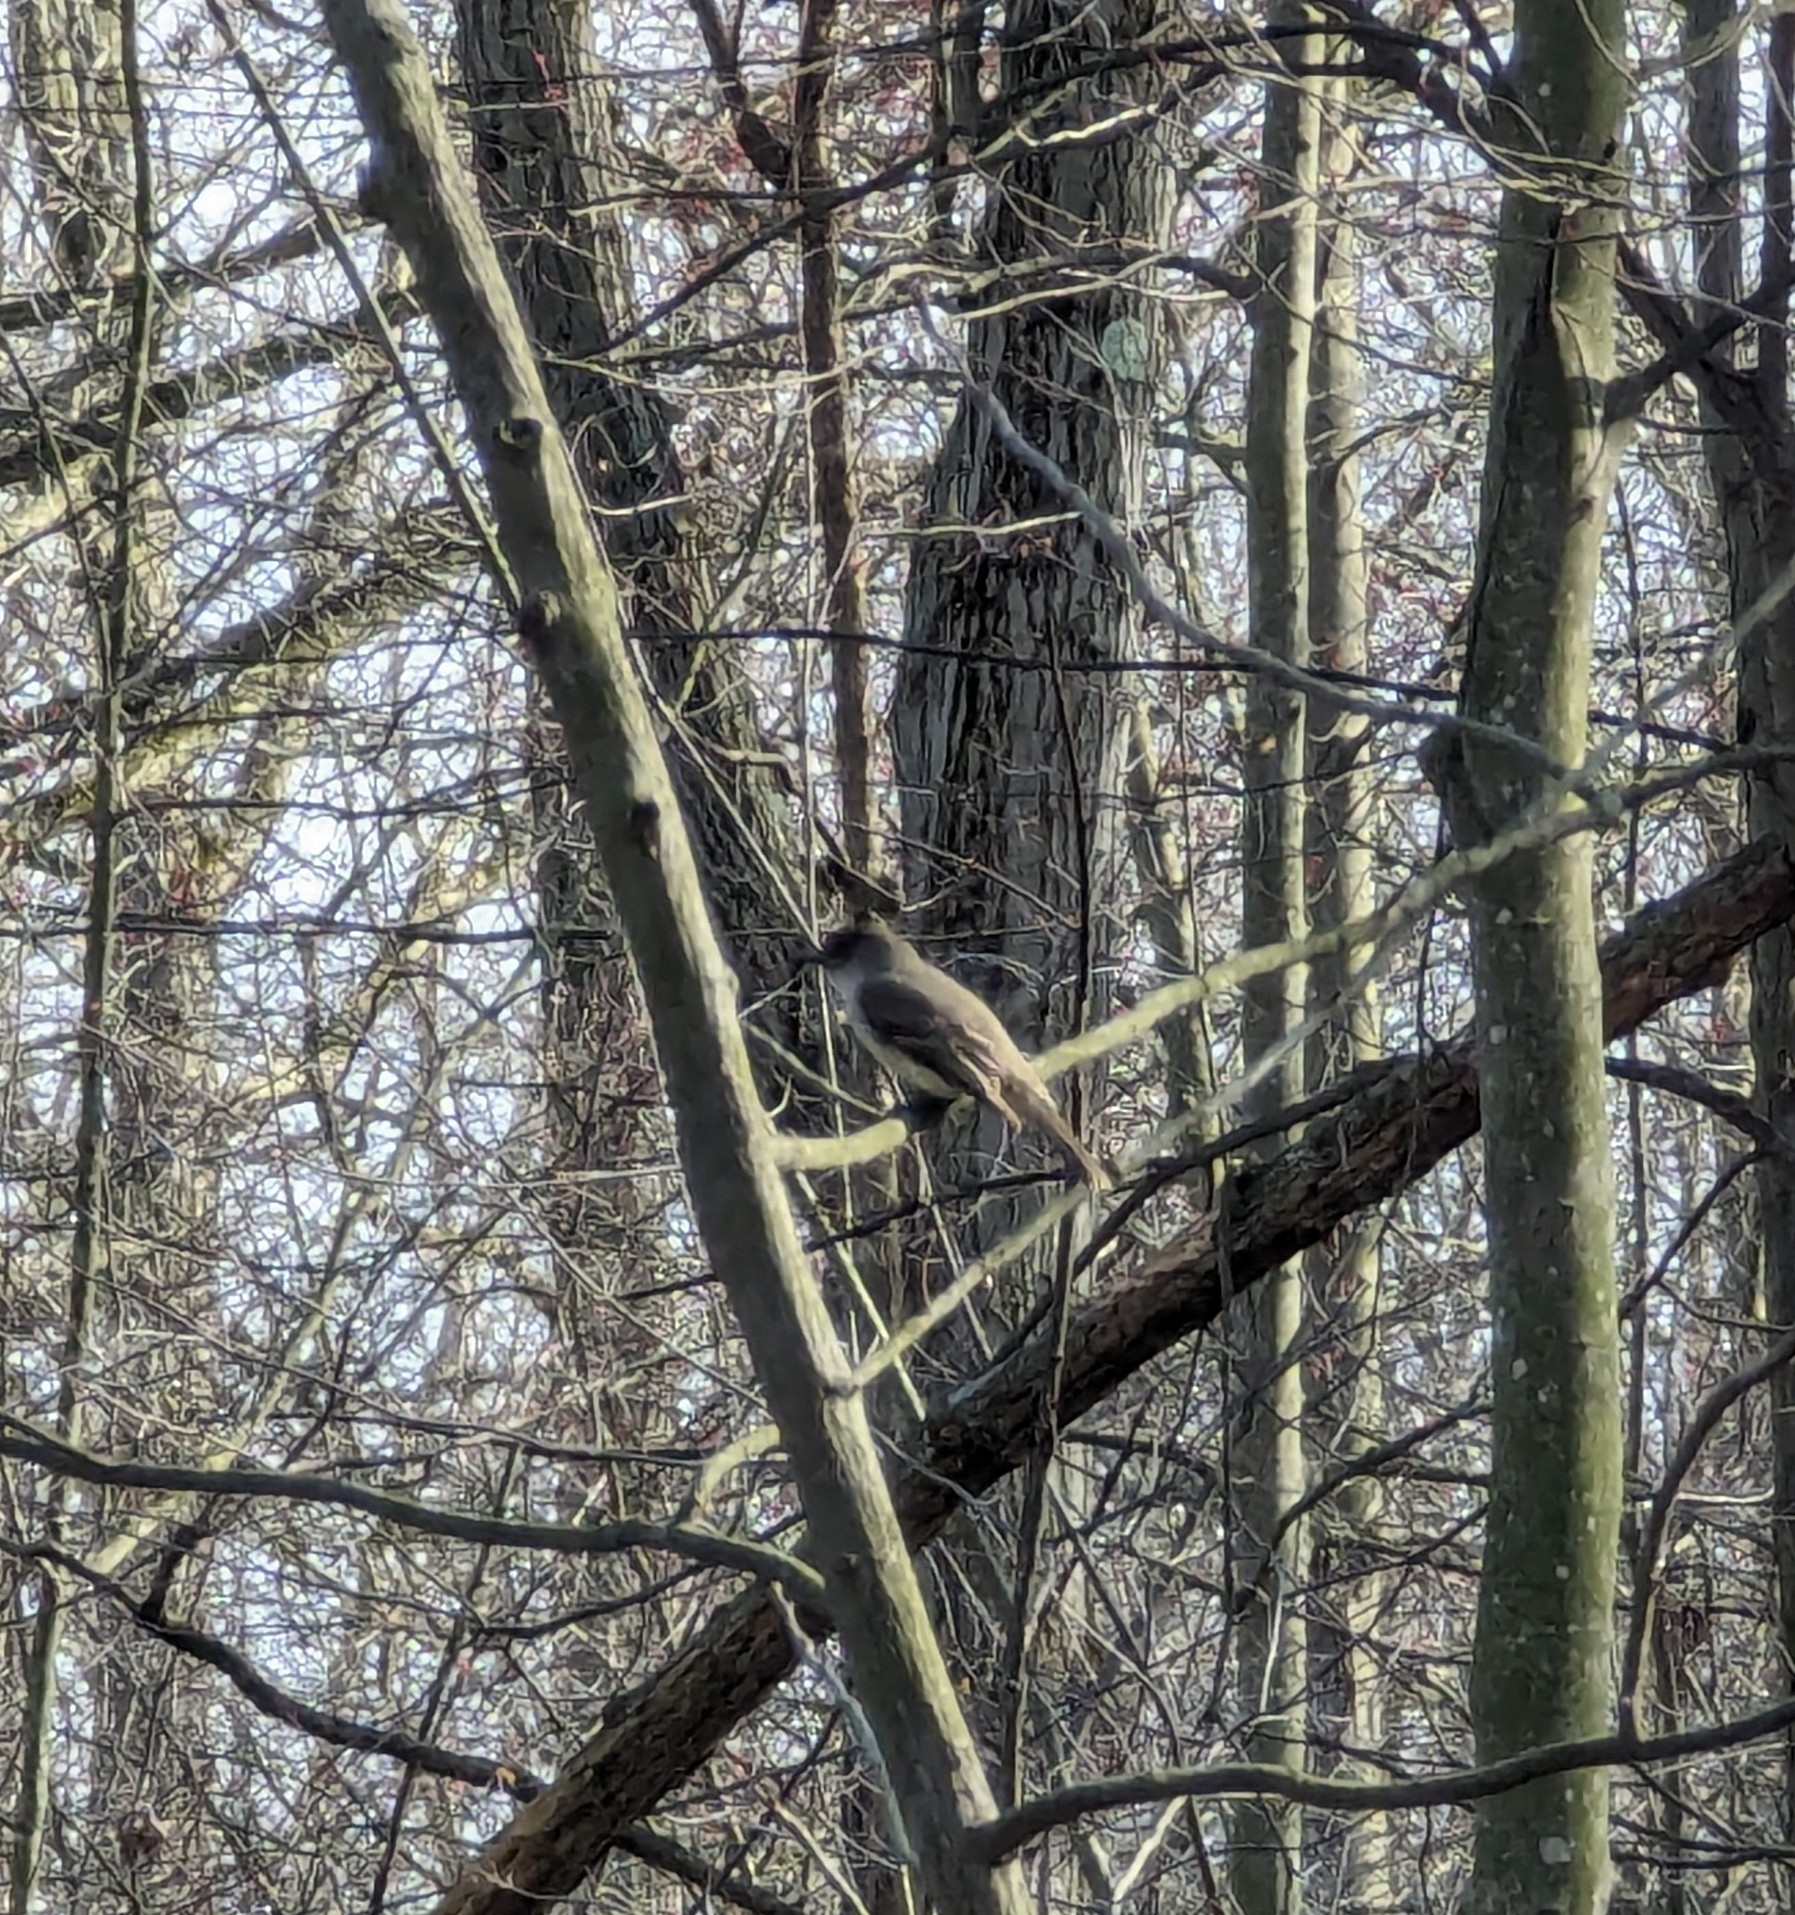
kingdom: Animalia
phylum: Chordata
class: Aves
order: Passeriformes
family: Tyrannidae
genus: Sayornis
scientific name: Sayornis phoebe
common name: Eastern phoebe
